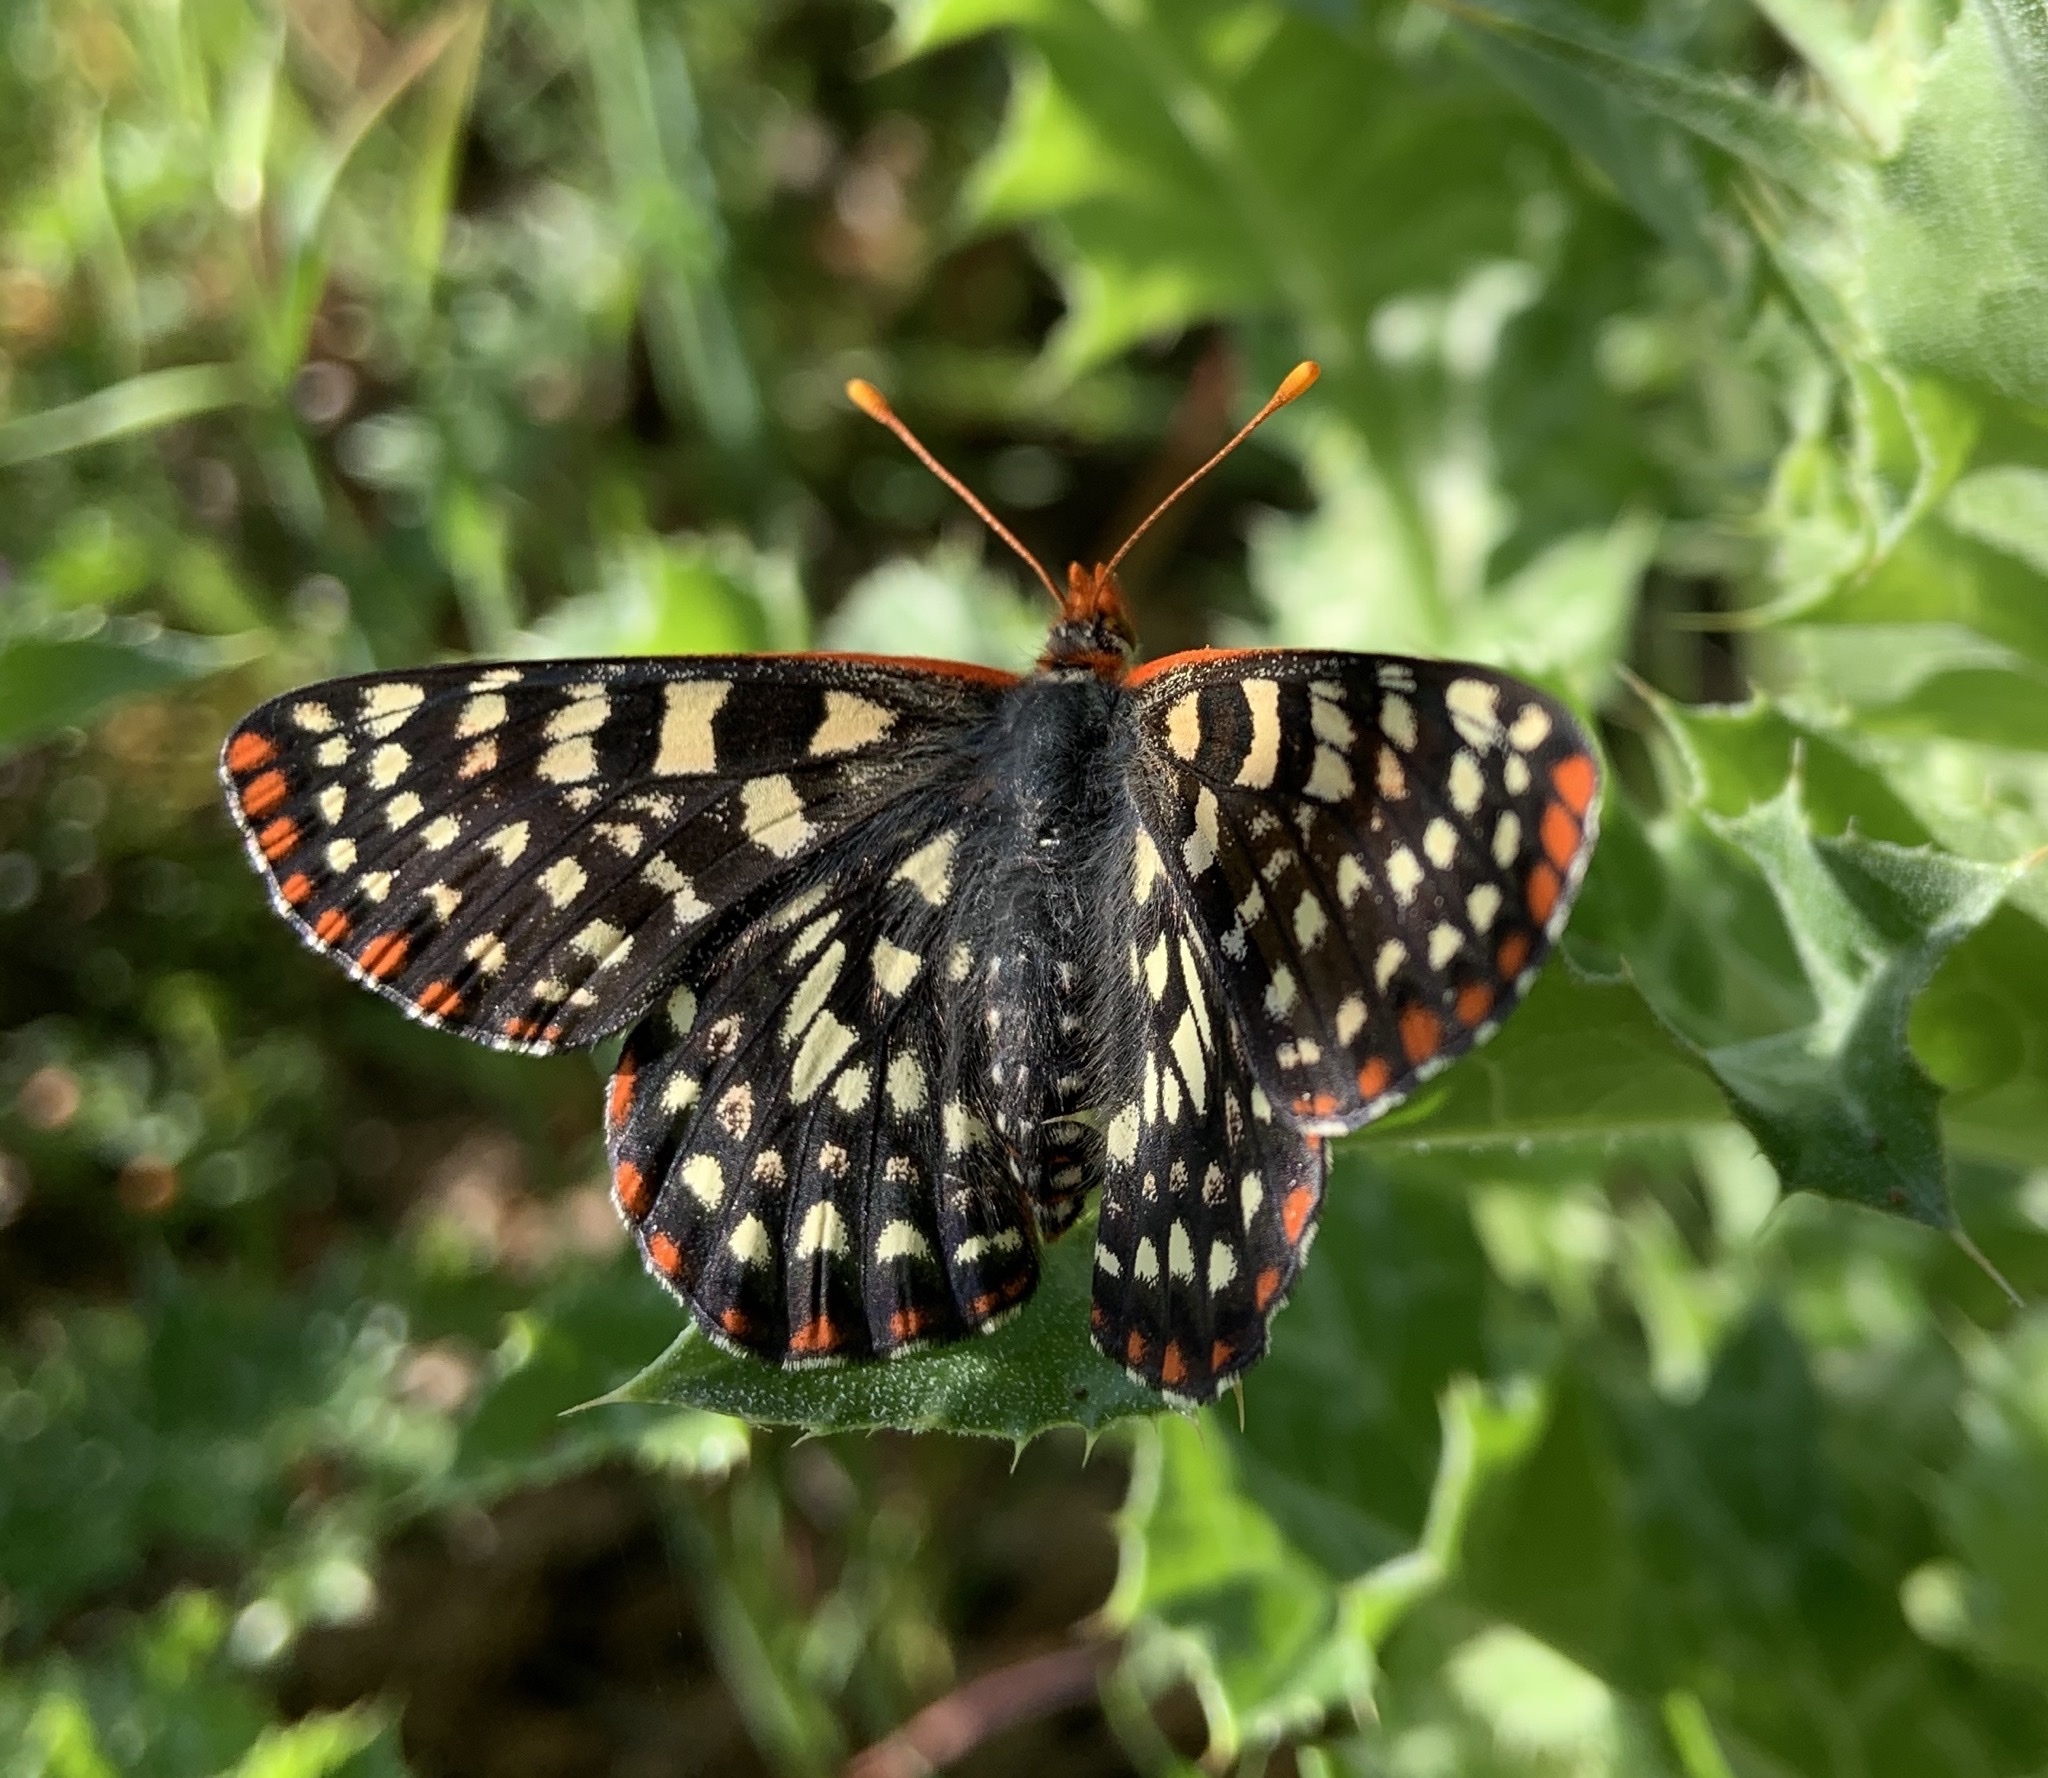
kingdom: Animalia
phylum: Arthropoda
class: Insecta
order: Lepidoptera
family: Nymphalidae
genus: Occidryas
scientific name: Occidryas chalcedona
